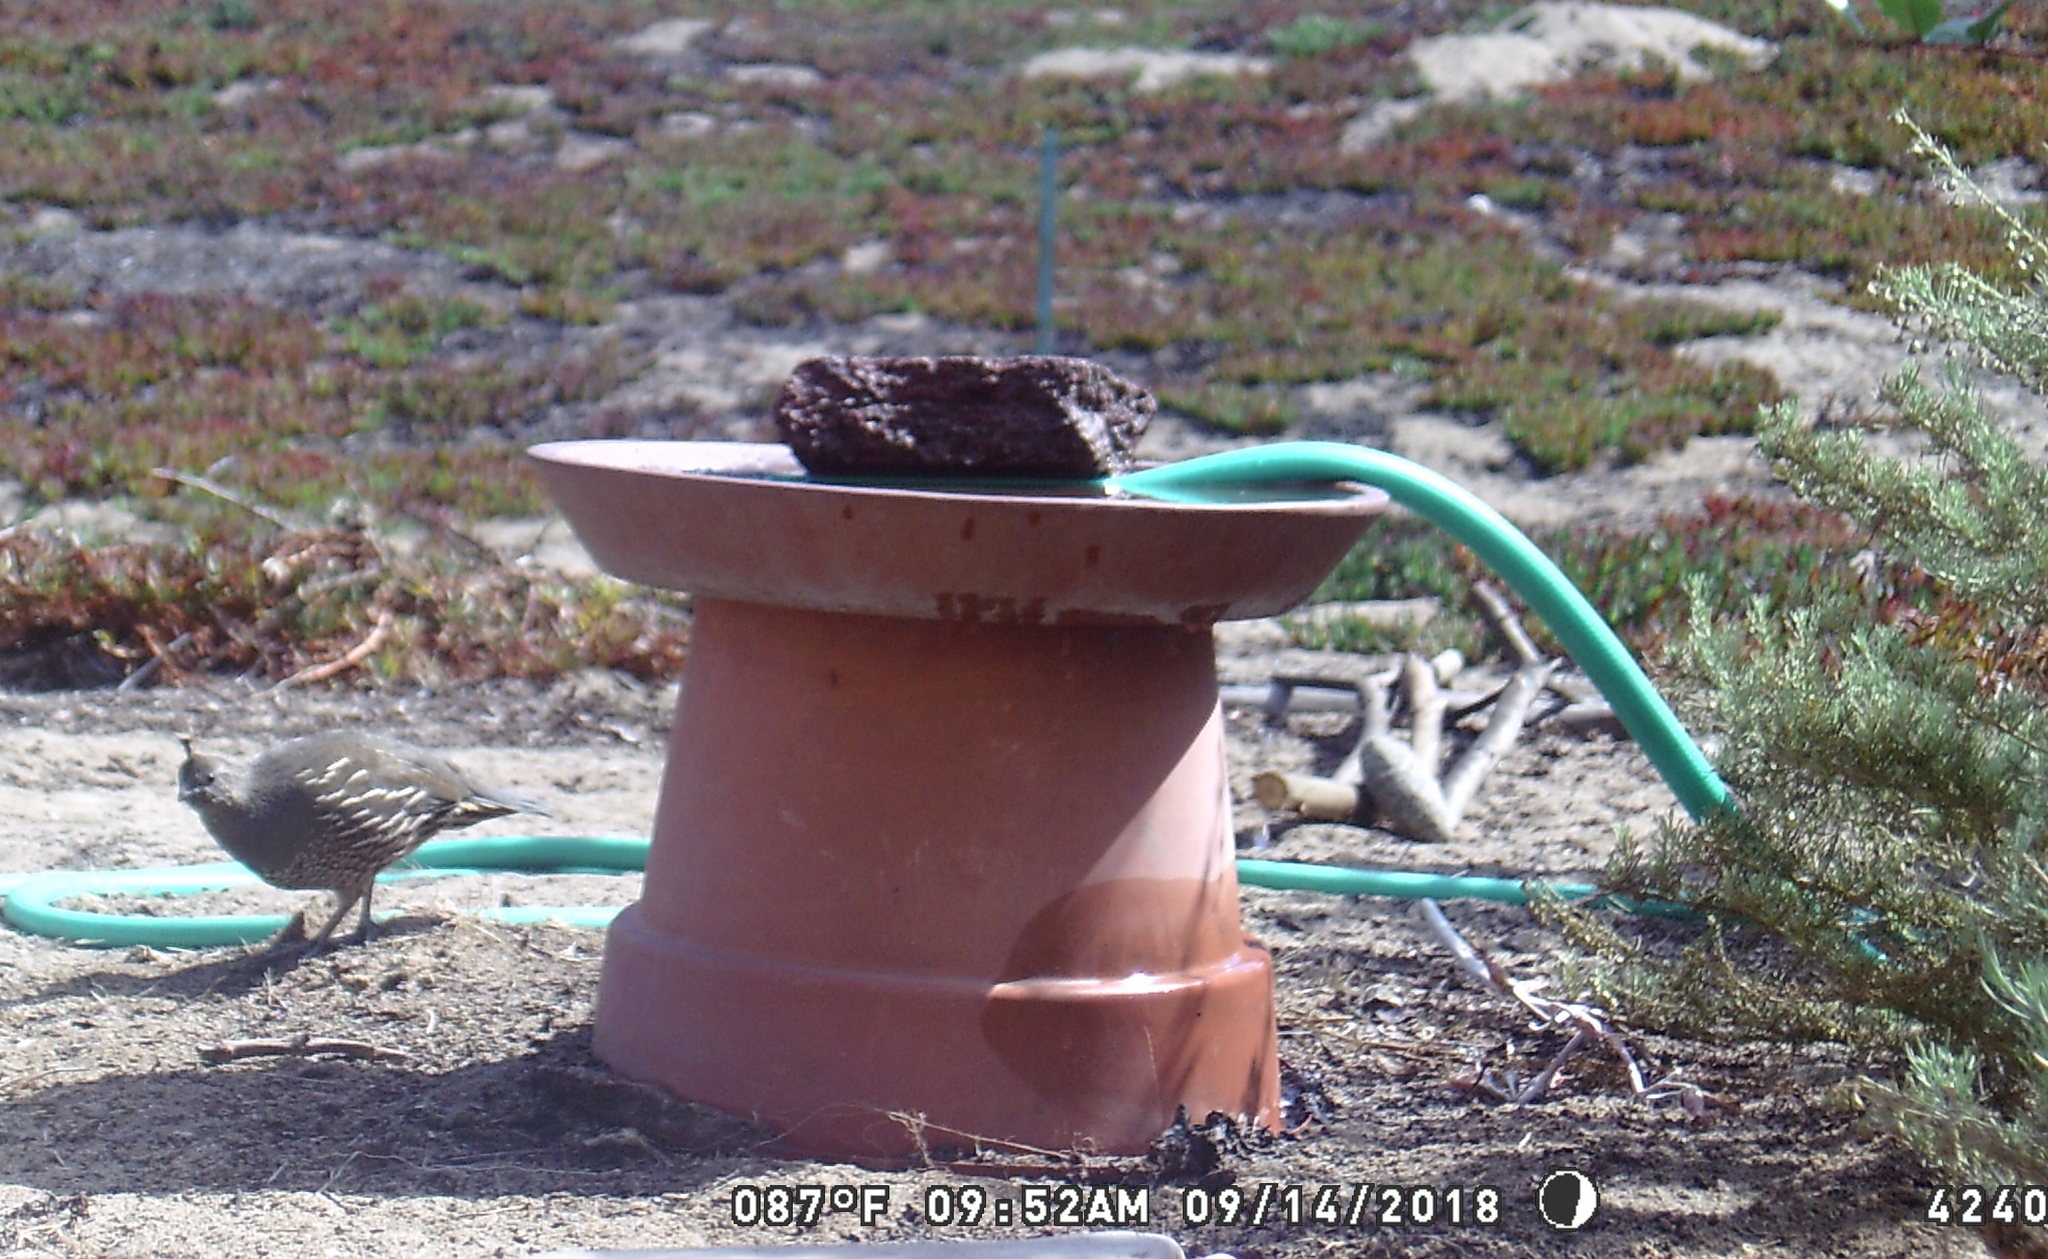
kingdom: Animalia
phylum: Chordata
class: Aves
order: Galliformes
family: Odontophoridae
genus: Callipepla
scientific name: Callipepla californica
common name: California quail
